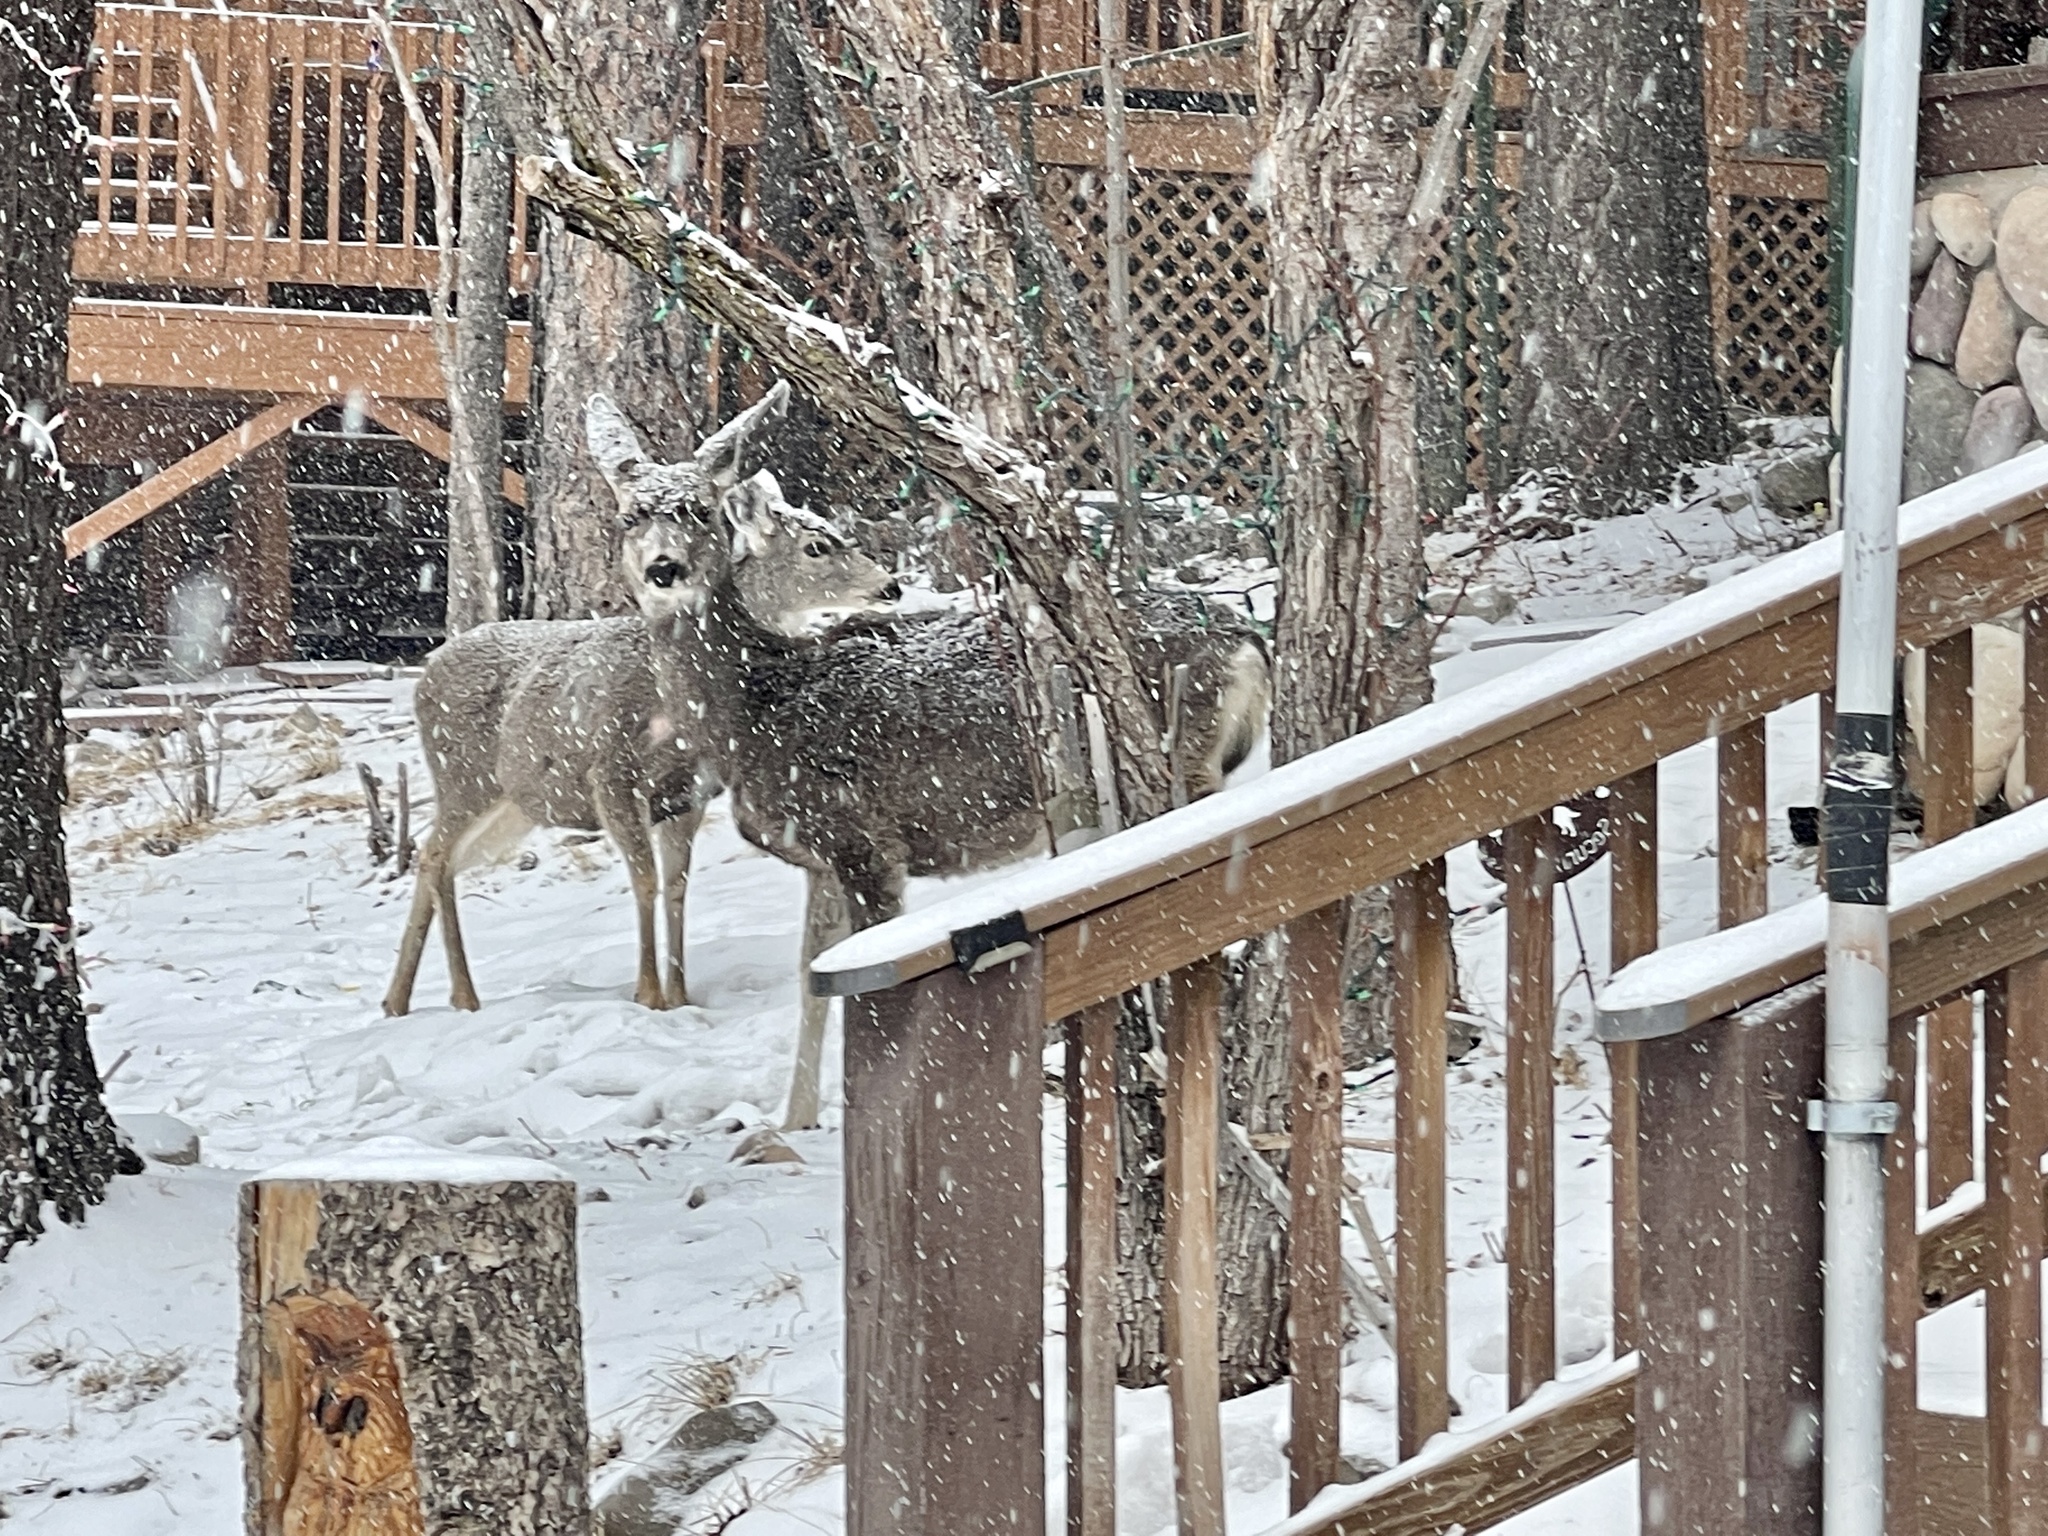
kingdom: Animalia
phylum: Chordata
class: Mammalia
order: Artiodactyla
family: Cervidae
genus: Odocoileus
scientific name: Odocoileus hemionus
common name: Mule deer
